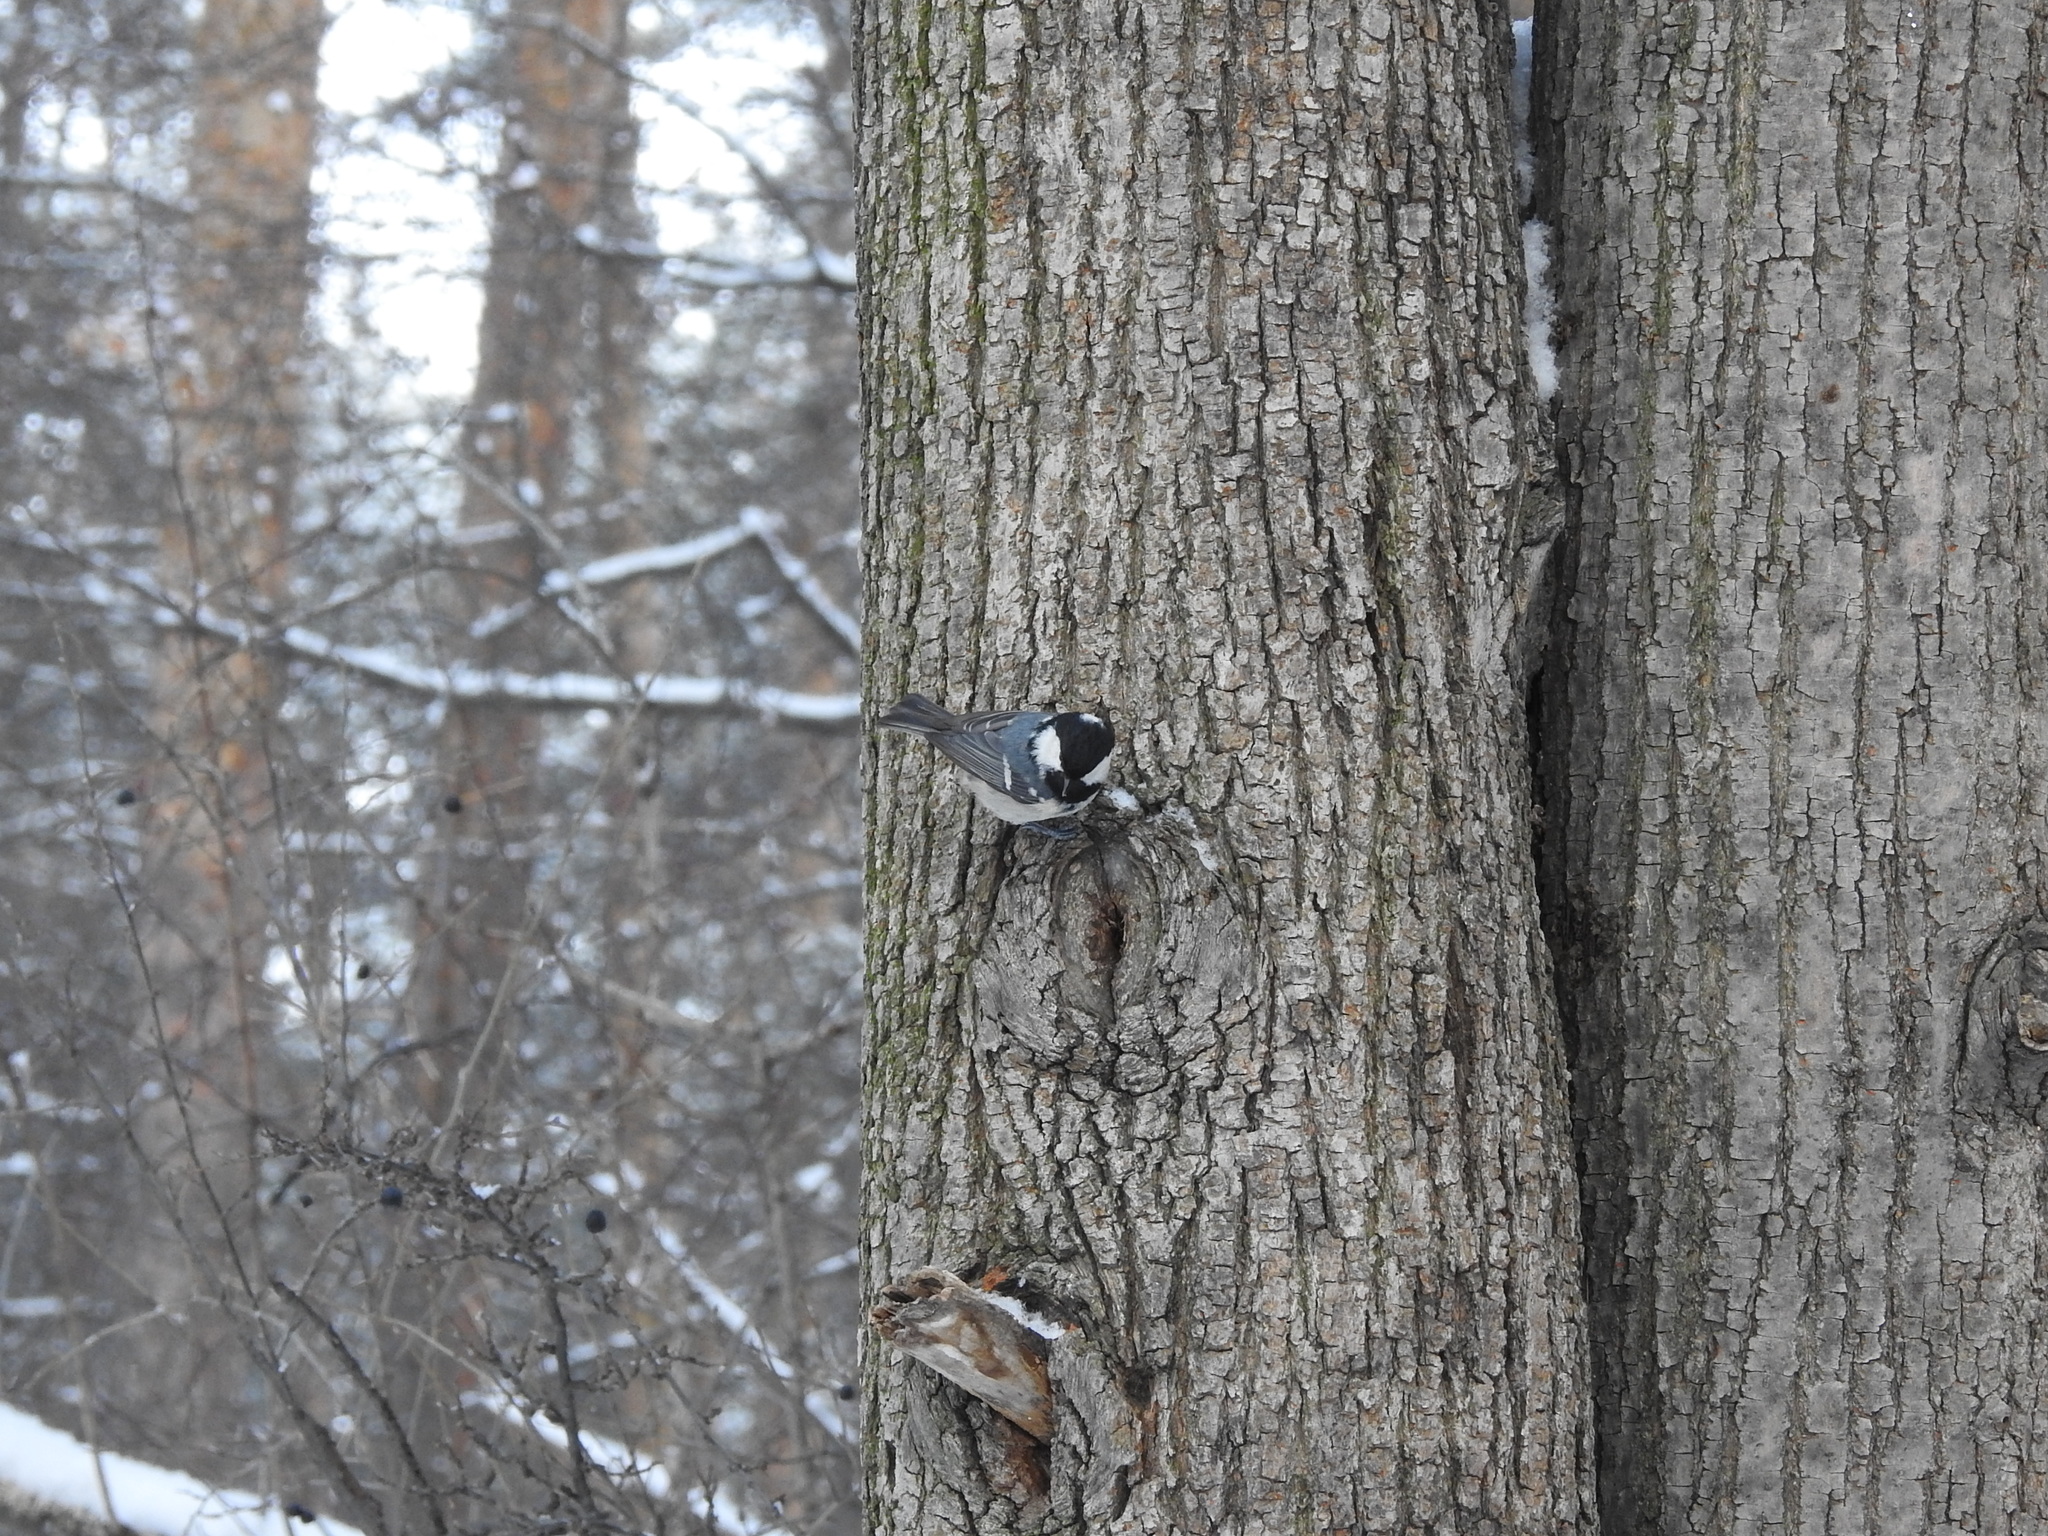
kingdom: Animalia
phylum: Chordata
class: Aves
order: Passeriformes
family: Paridae
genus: Periparus
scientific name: Periparus ater
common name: Coal tit
